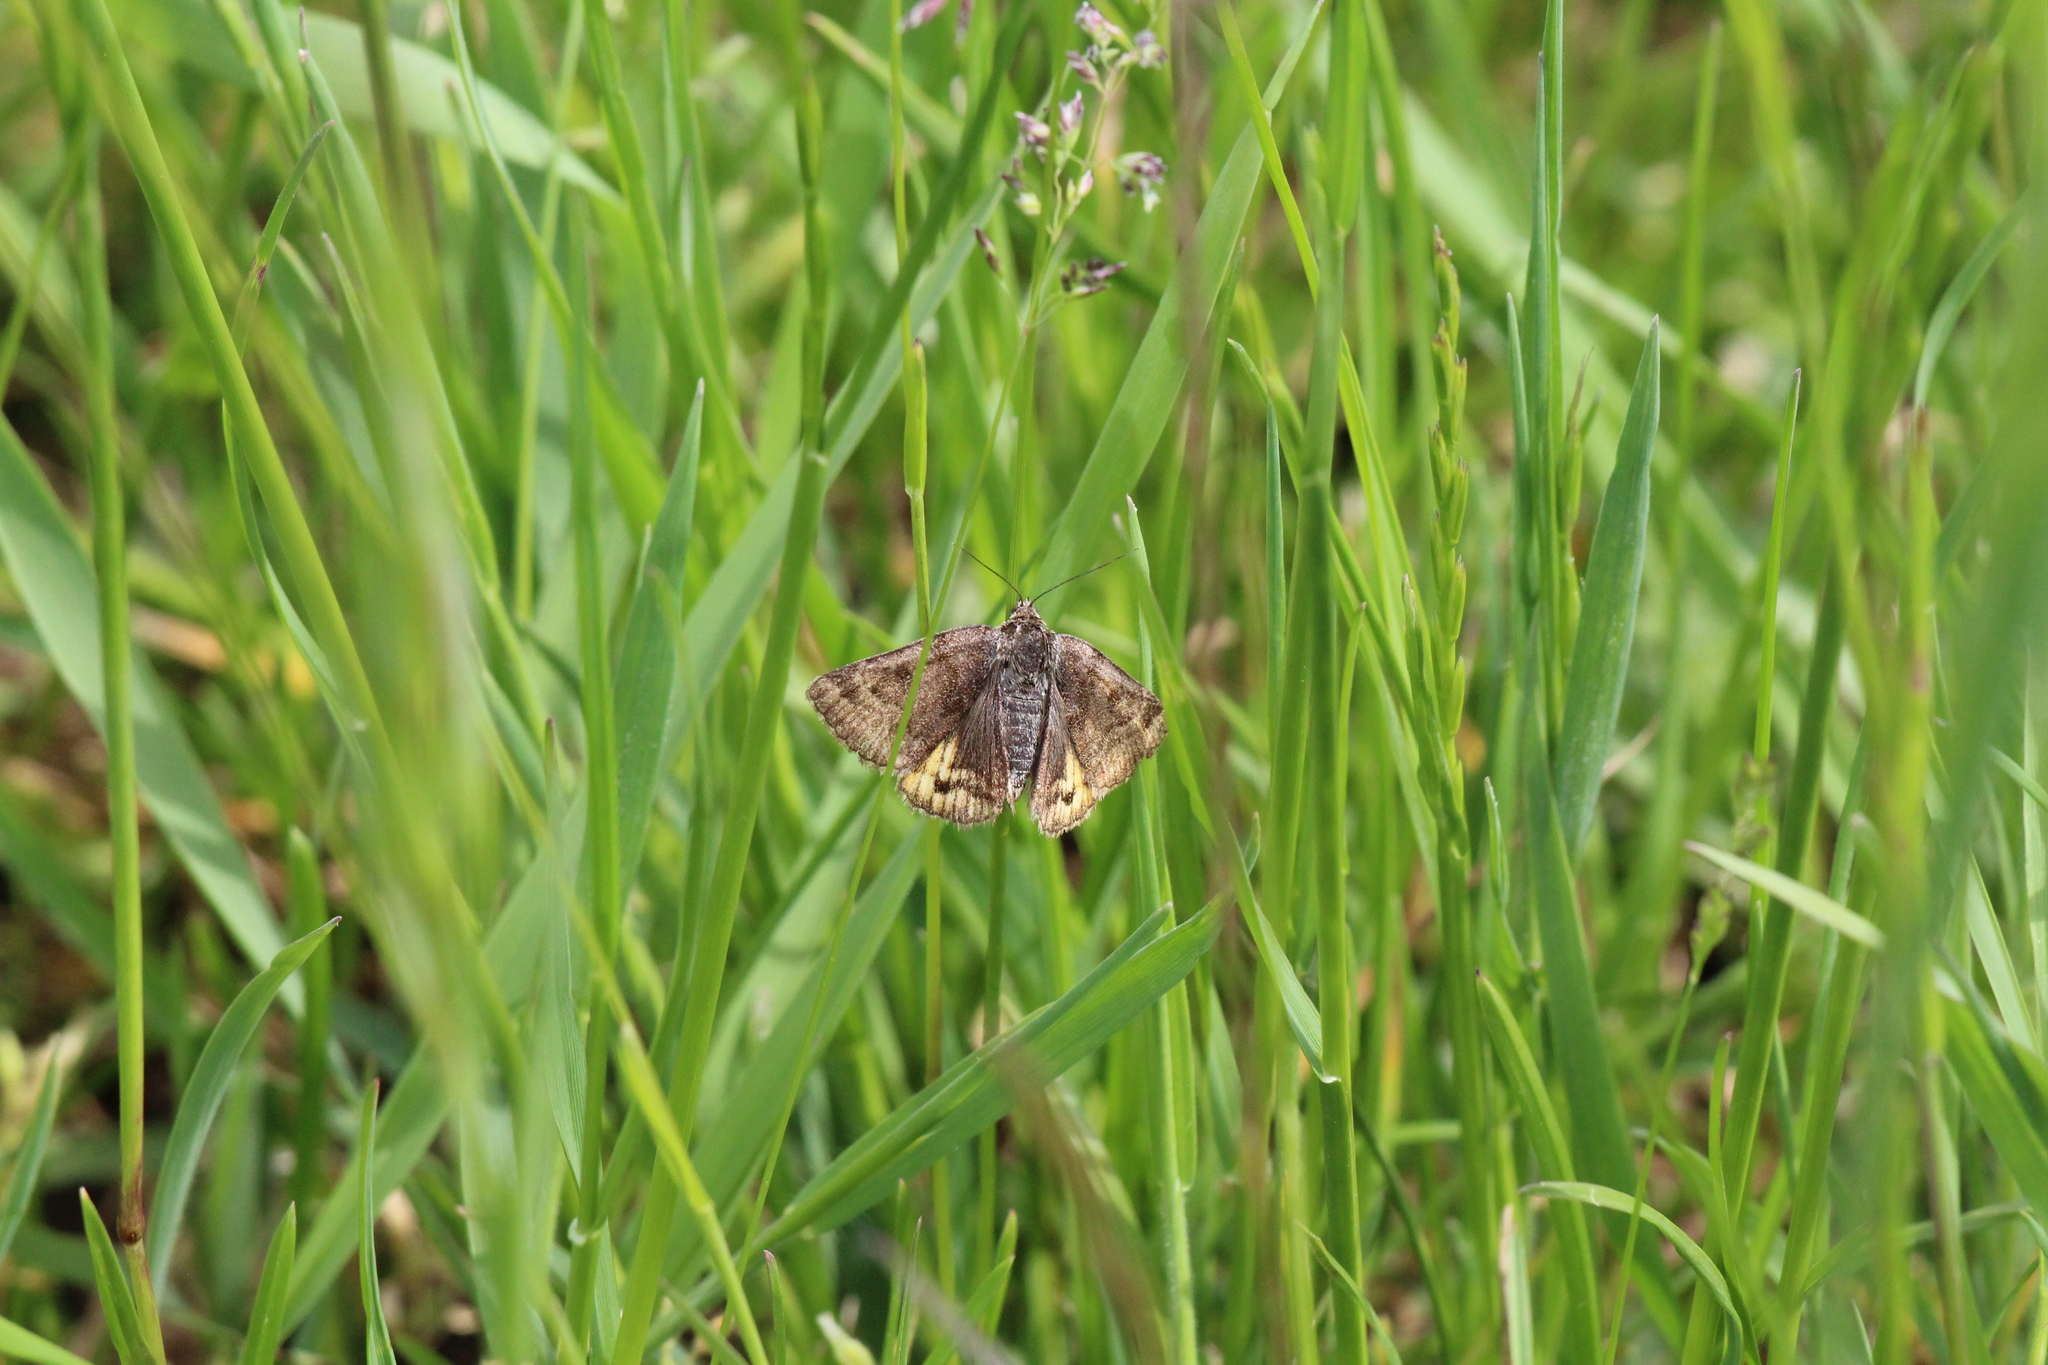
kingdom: Animalia
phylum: Arthropoda
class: Insecta
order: Lepidoptera
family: Erebidae
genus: Euclidia
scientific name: Euclidia glyphica
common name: Burnet companion
